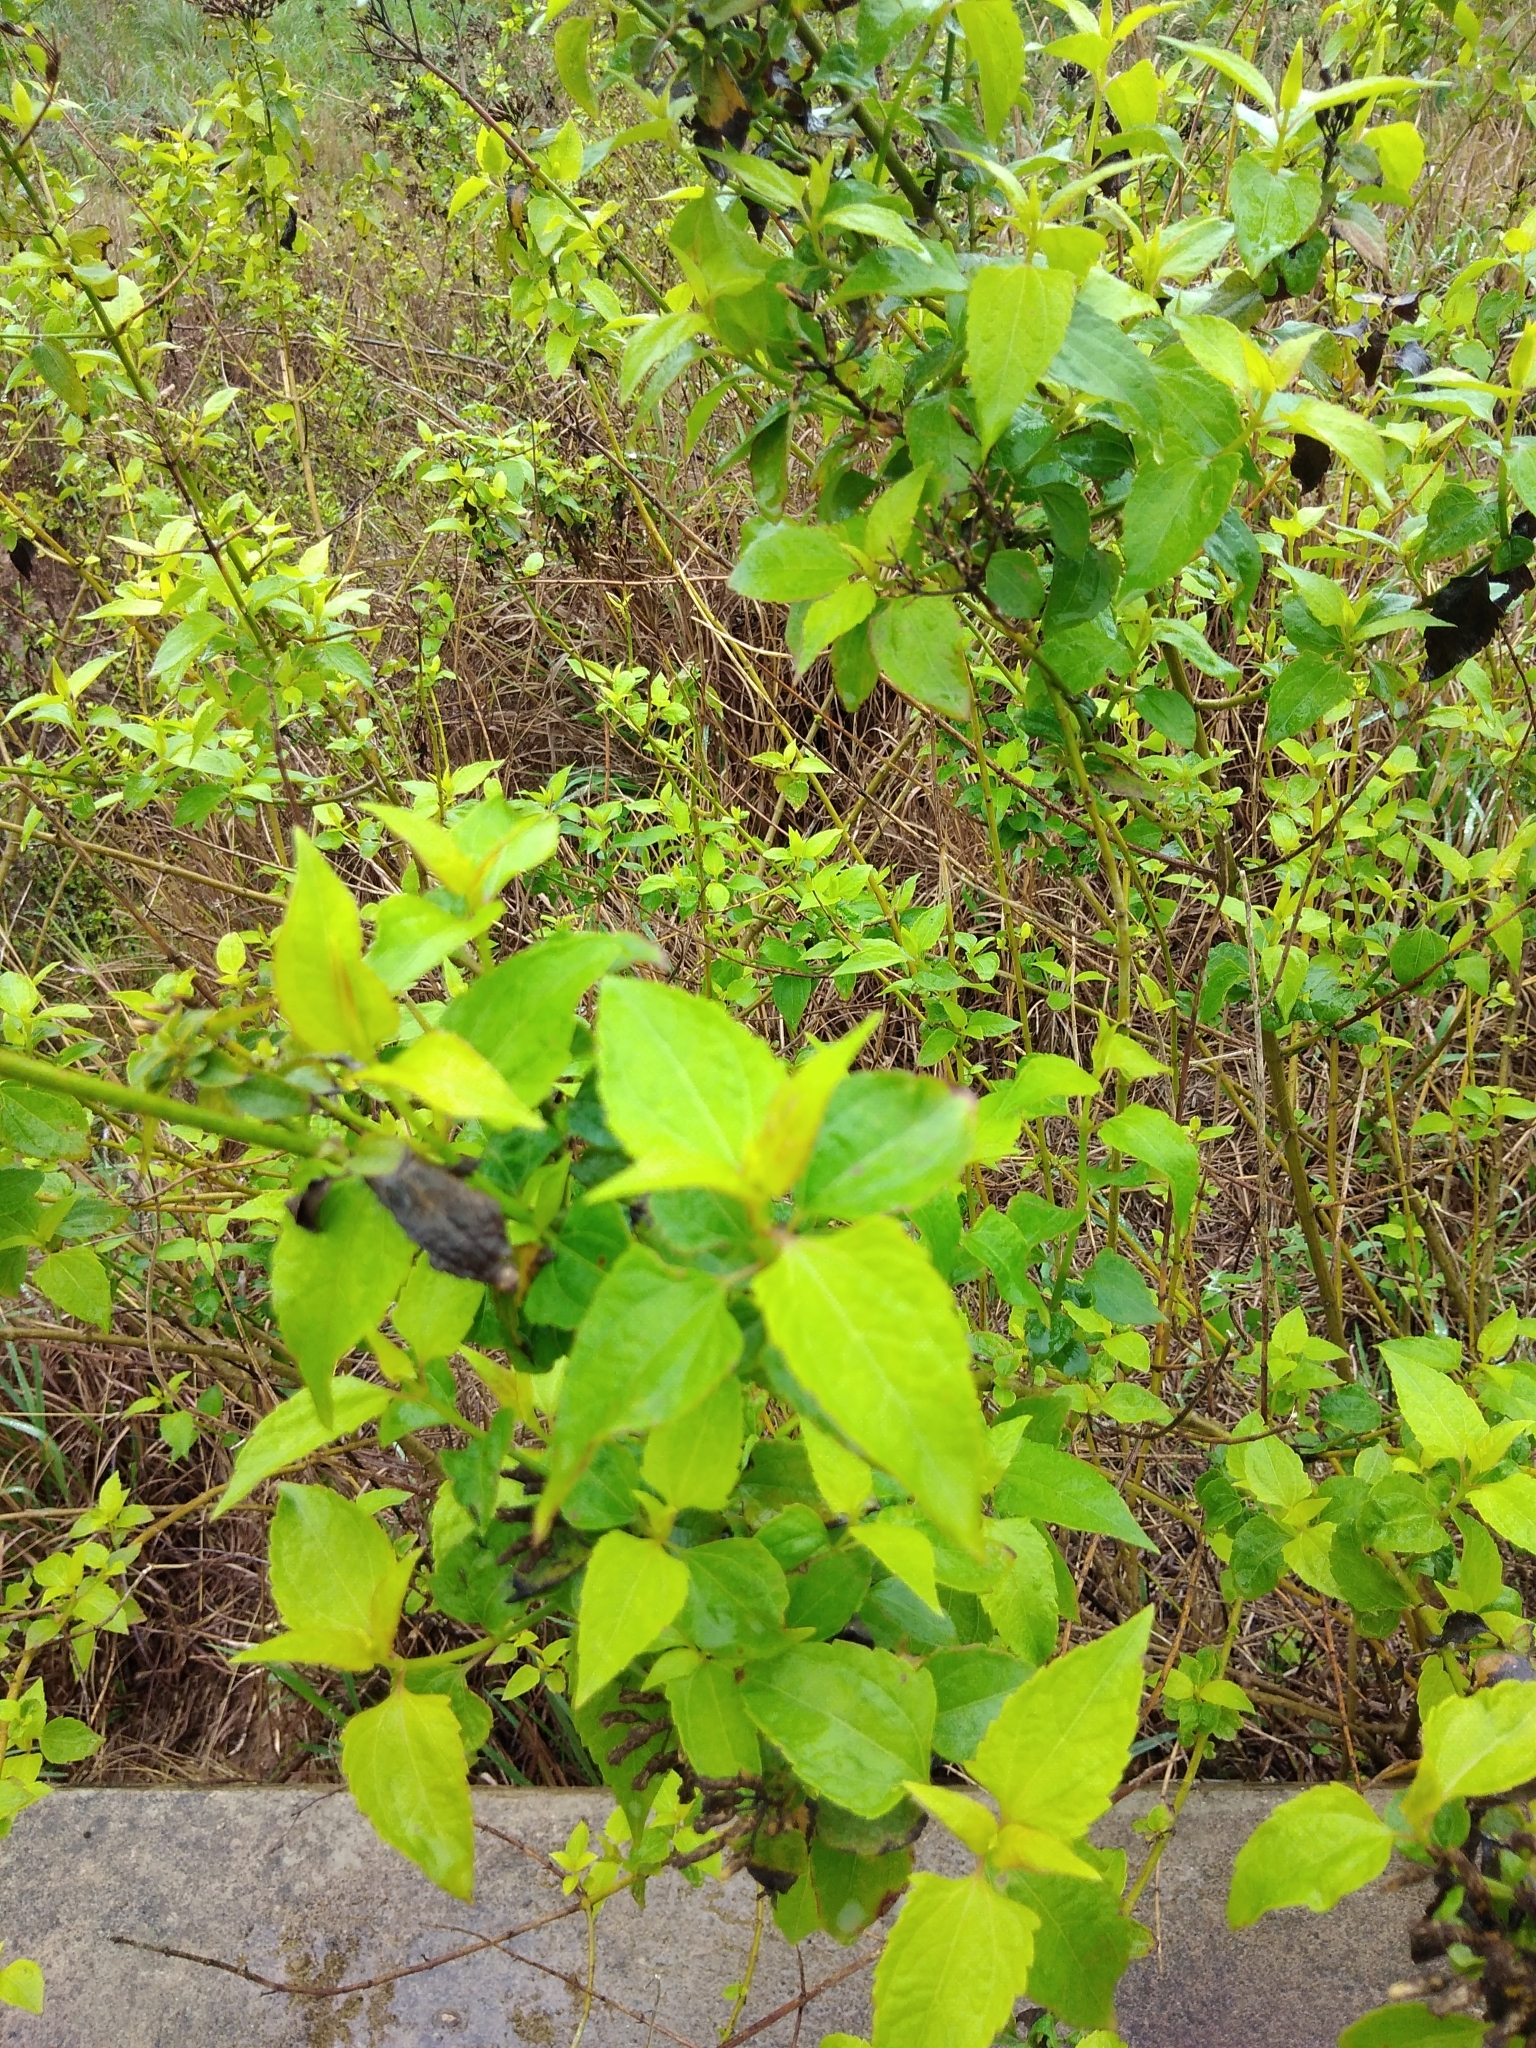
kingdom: Plantae
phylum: Tracheophyta
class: Magnoliopsida
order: Asterales
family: Asteraceae
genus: Chromolaena
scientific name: Chromolaena odorata
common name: Siamweed
